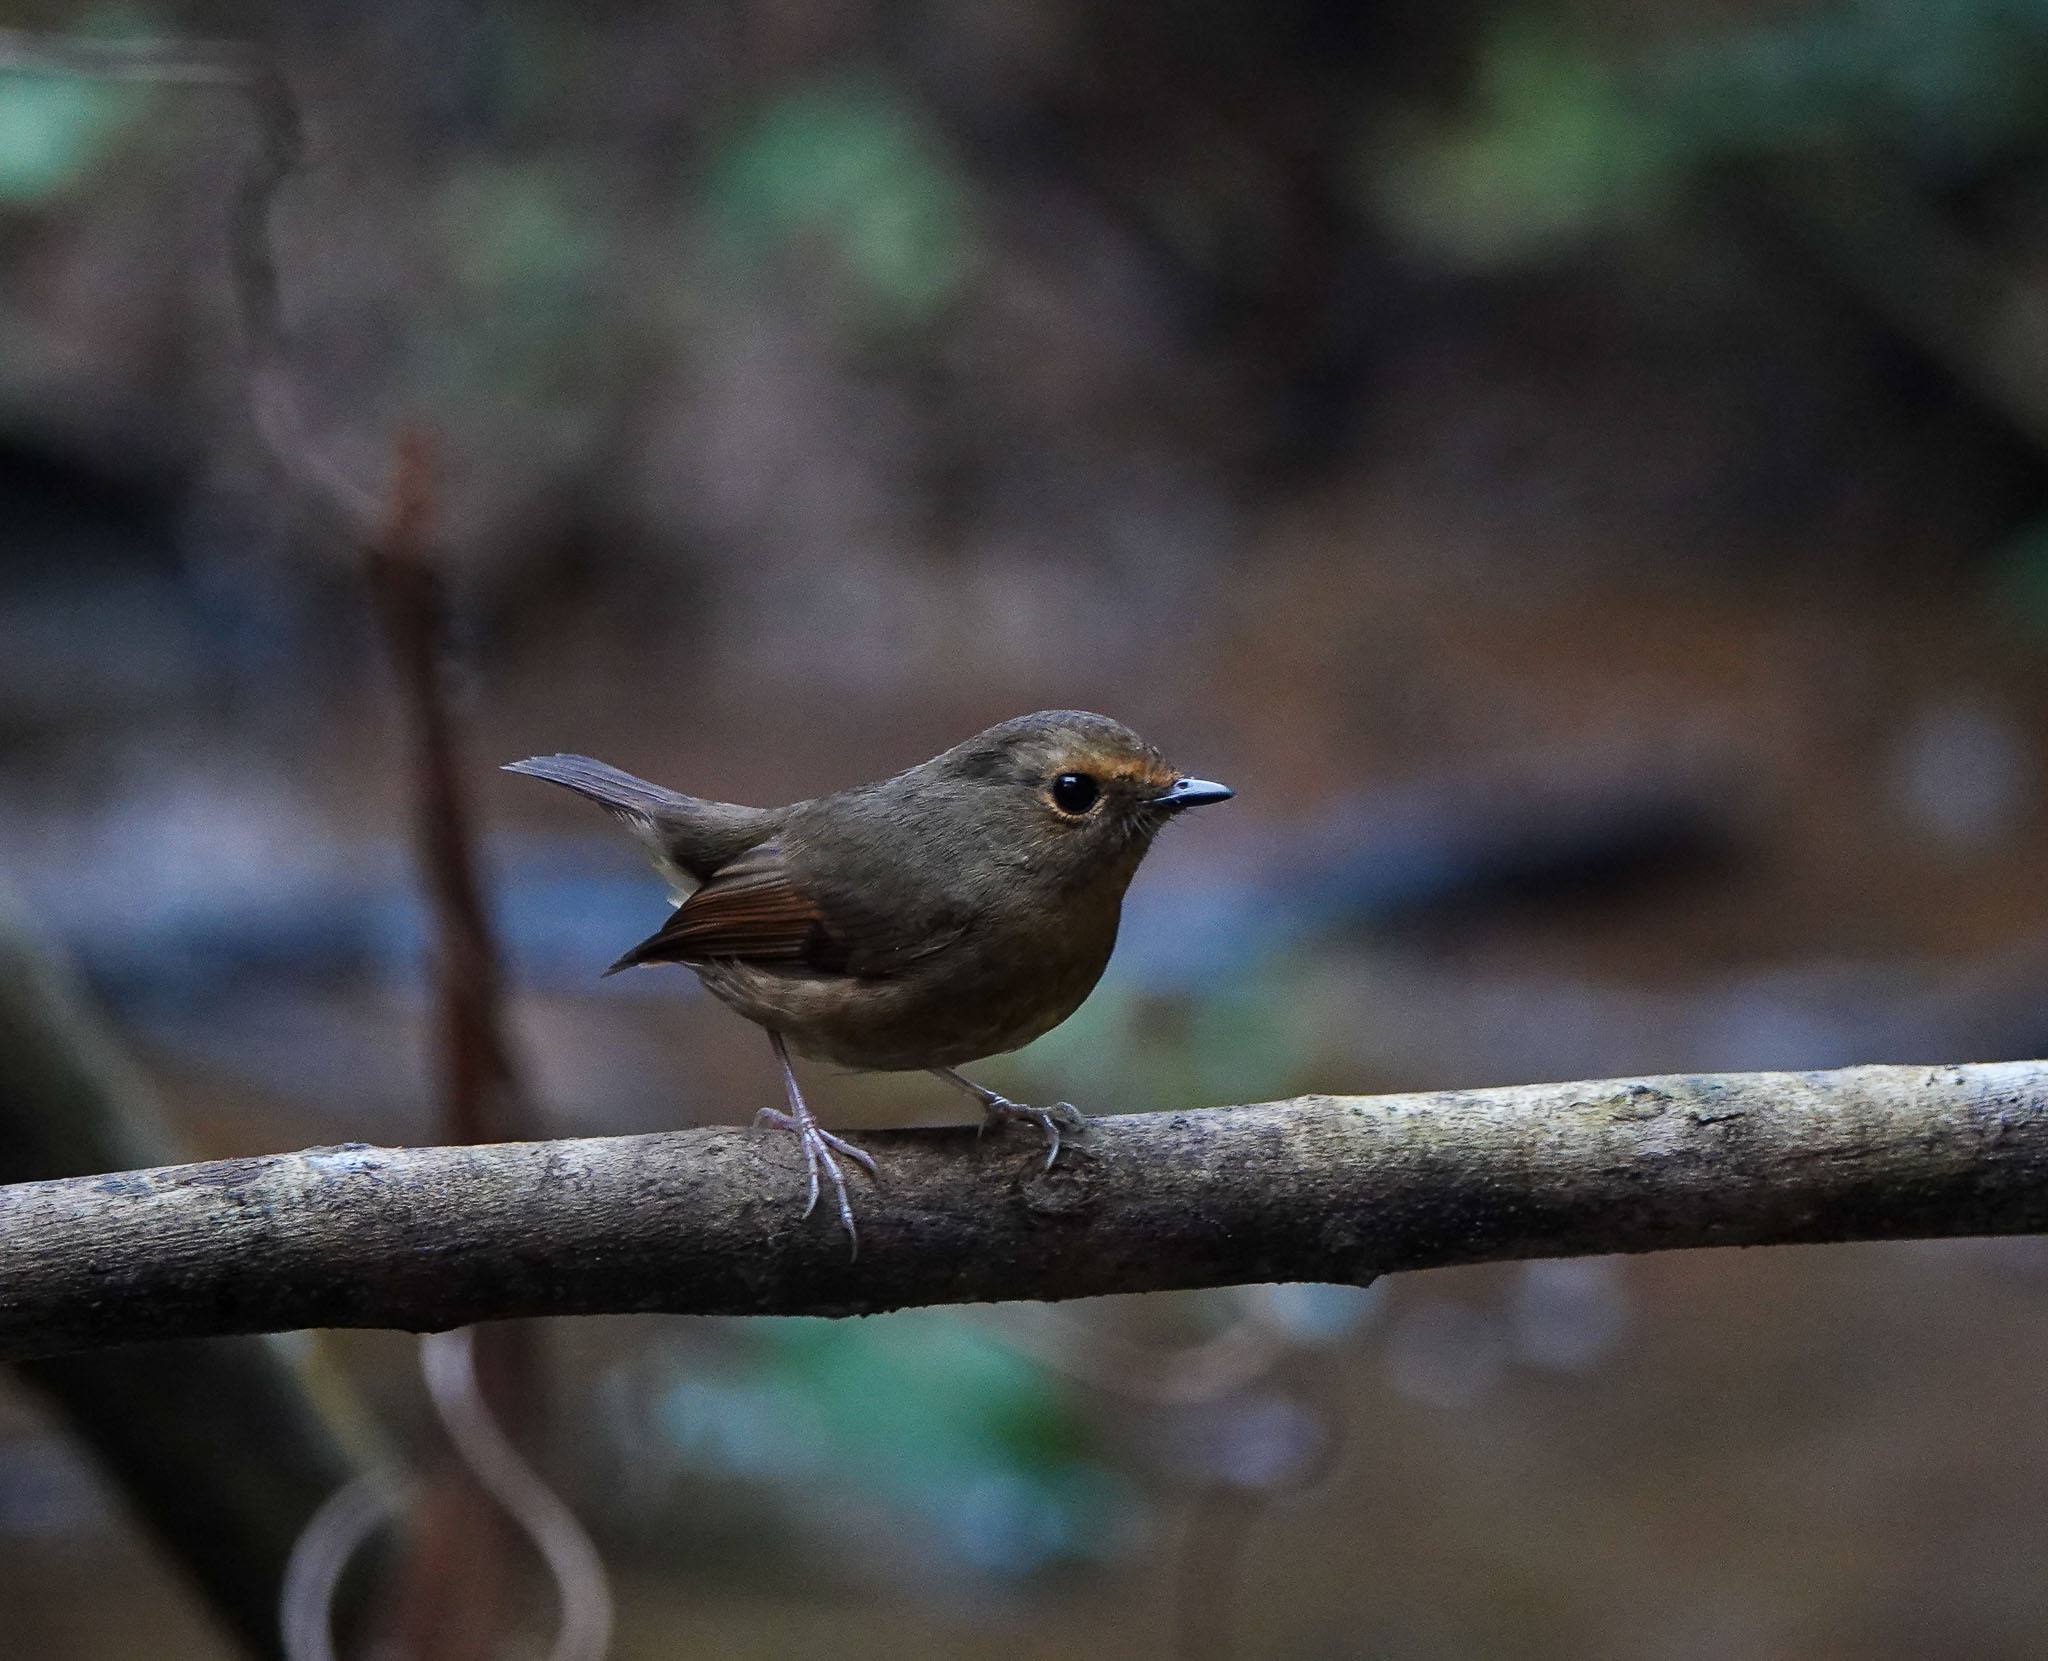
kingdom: Animalia
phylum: Chordata
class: Aves
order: Passeriformes
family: Muscicapidae
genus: Ficedula
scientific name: Ficedula hyperythra
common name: Snowy-browed flycatcher
